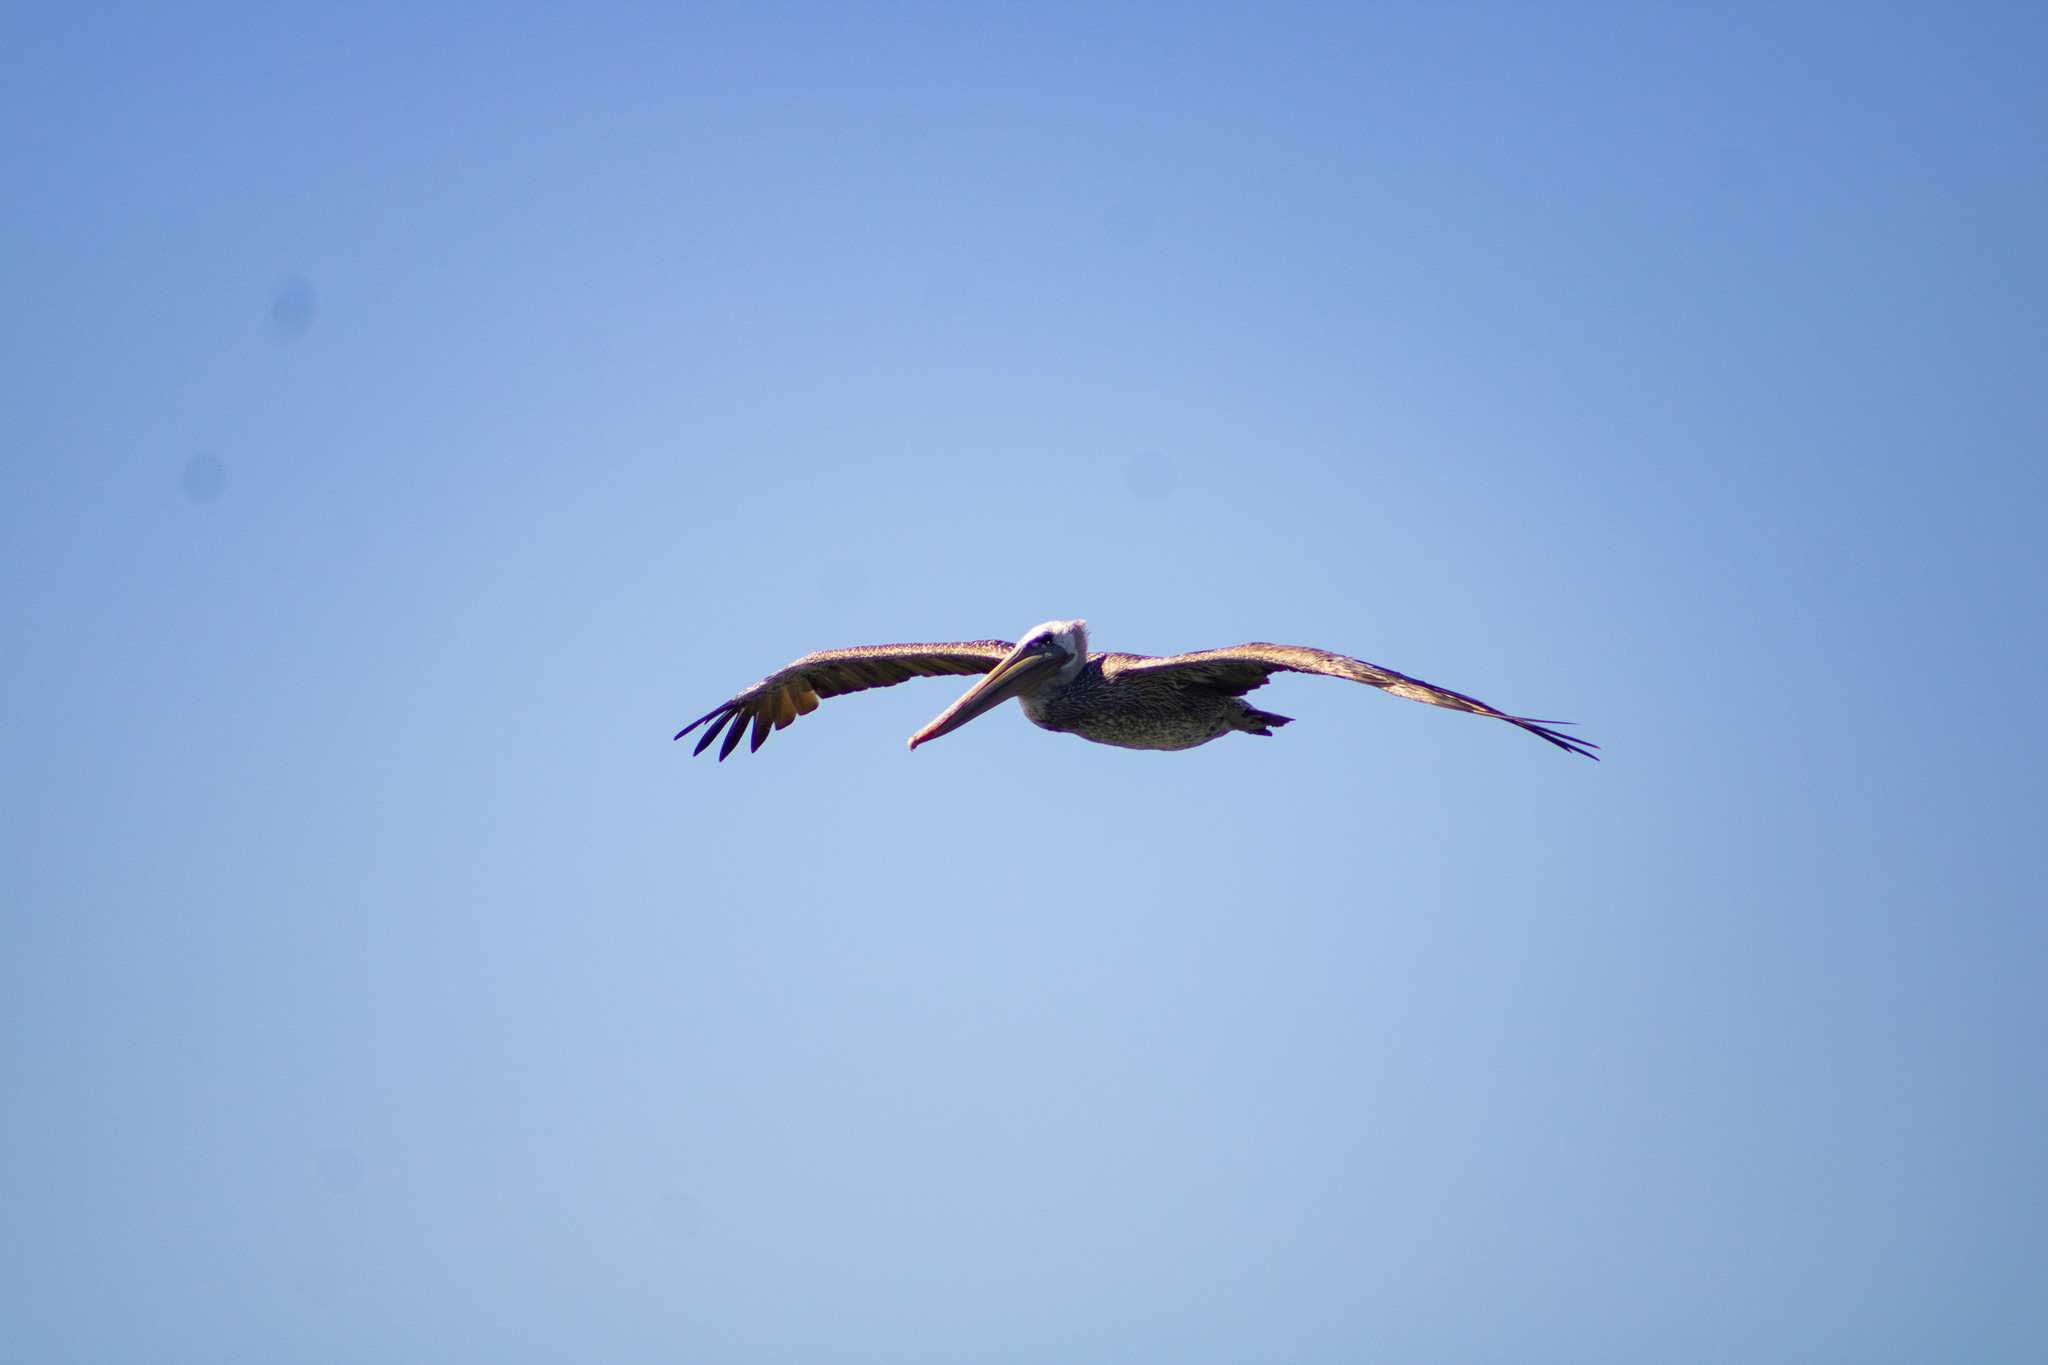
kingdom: Animalia
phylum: Chordata
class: Aves
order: Pelecaniformes
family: Pelecanidae
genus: Pelecanus
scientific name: Pelecanus occidentalis
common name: Brown pelican
